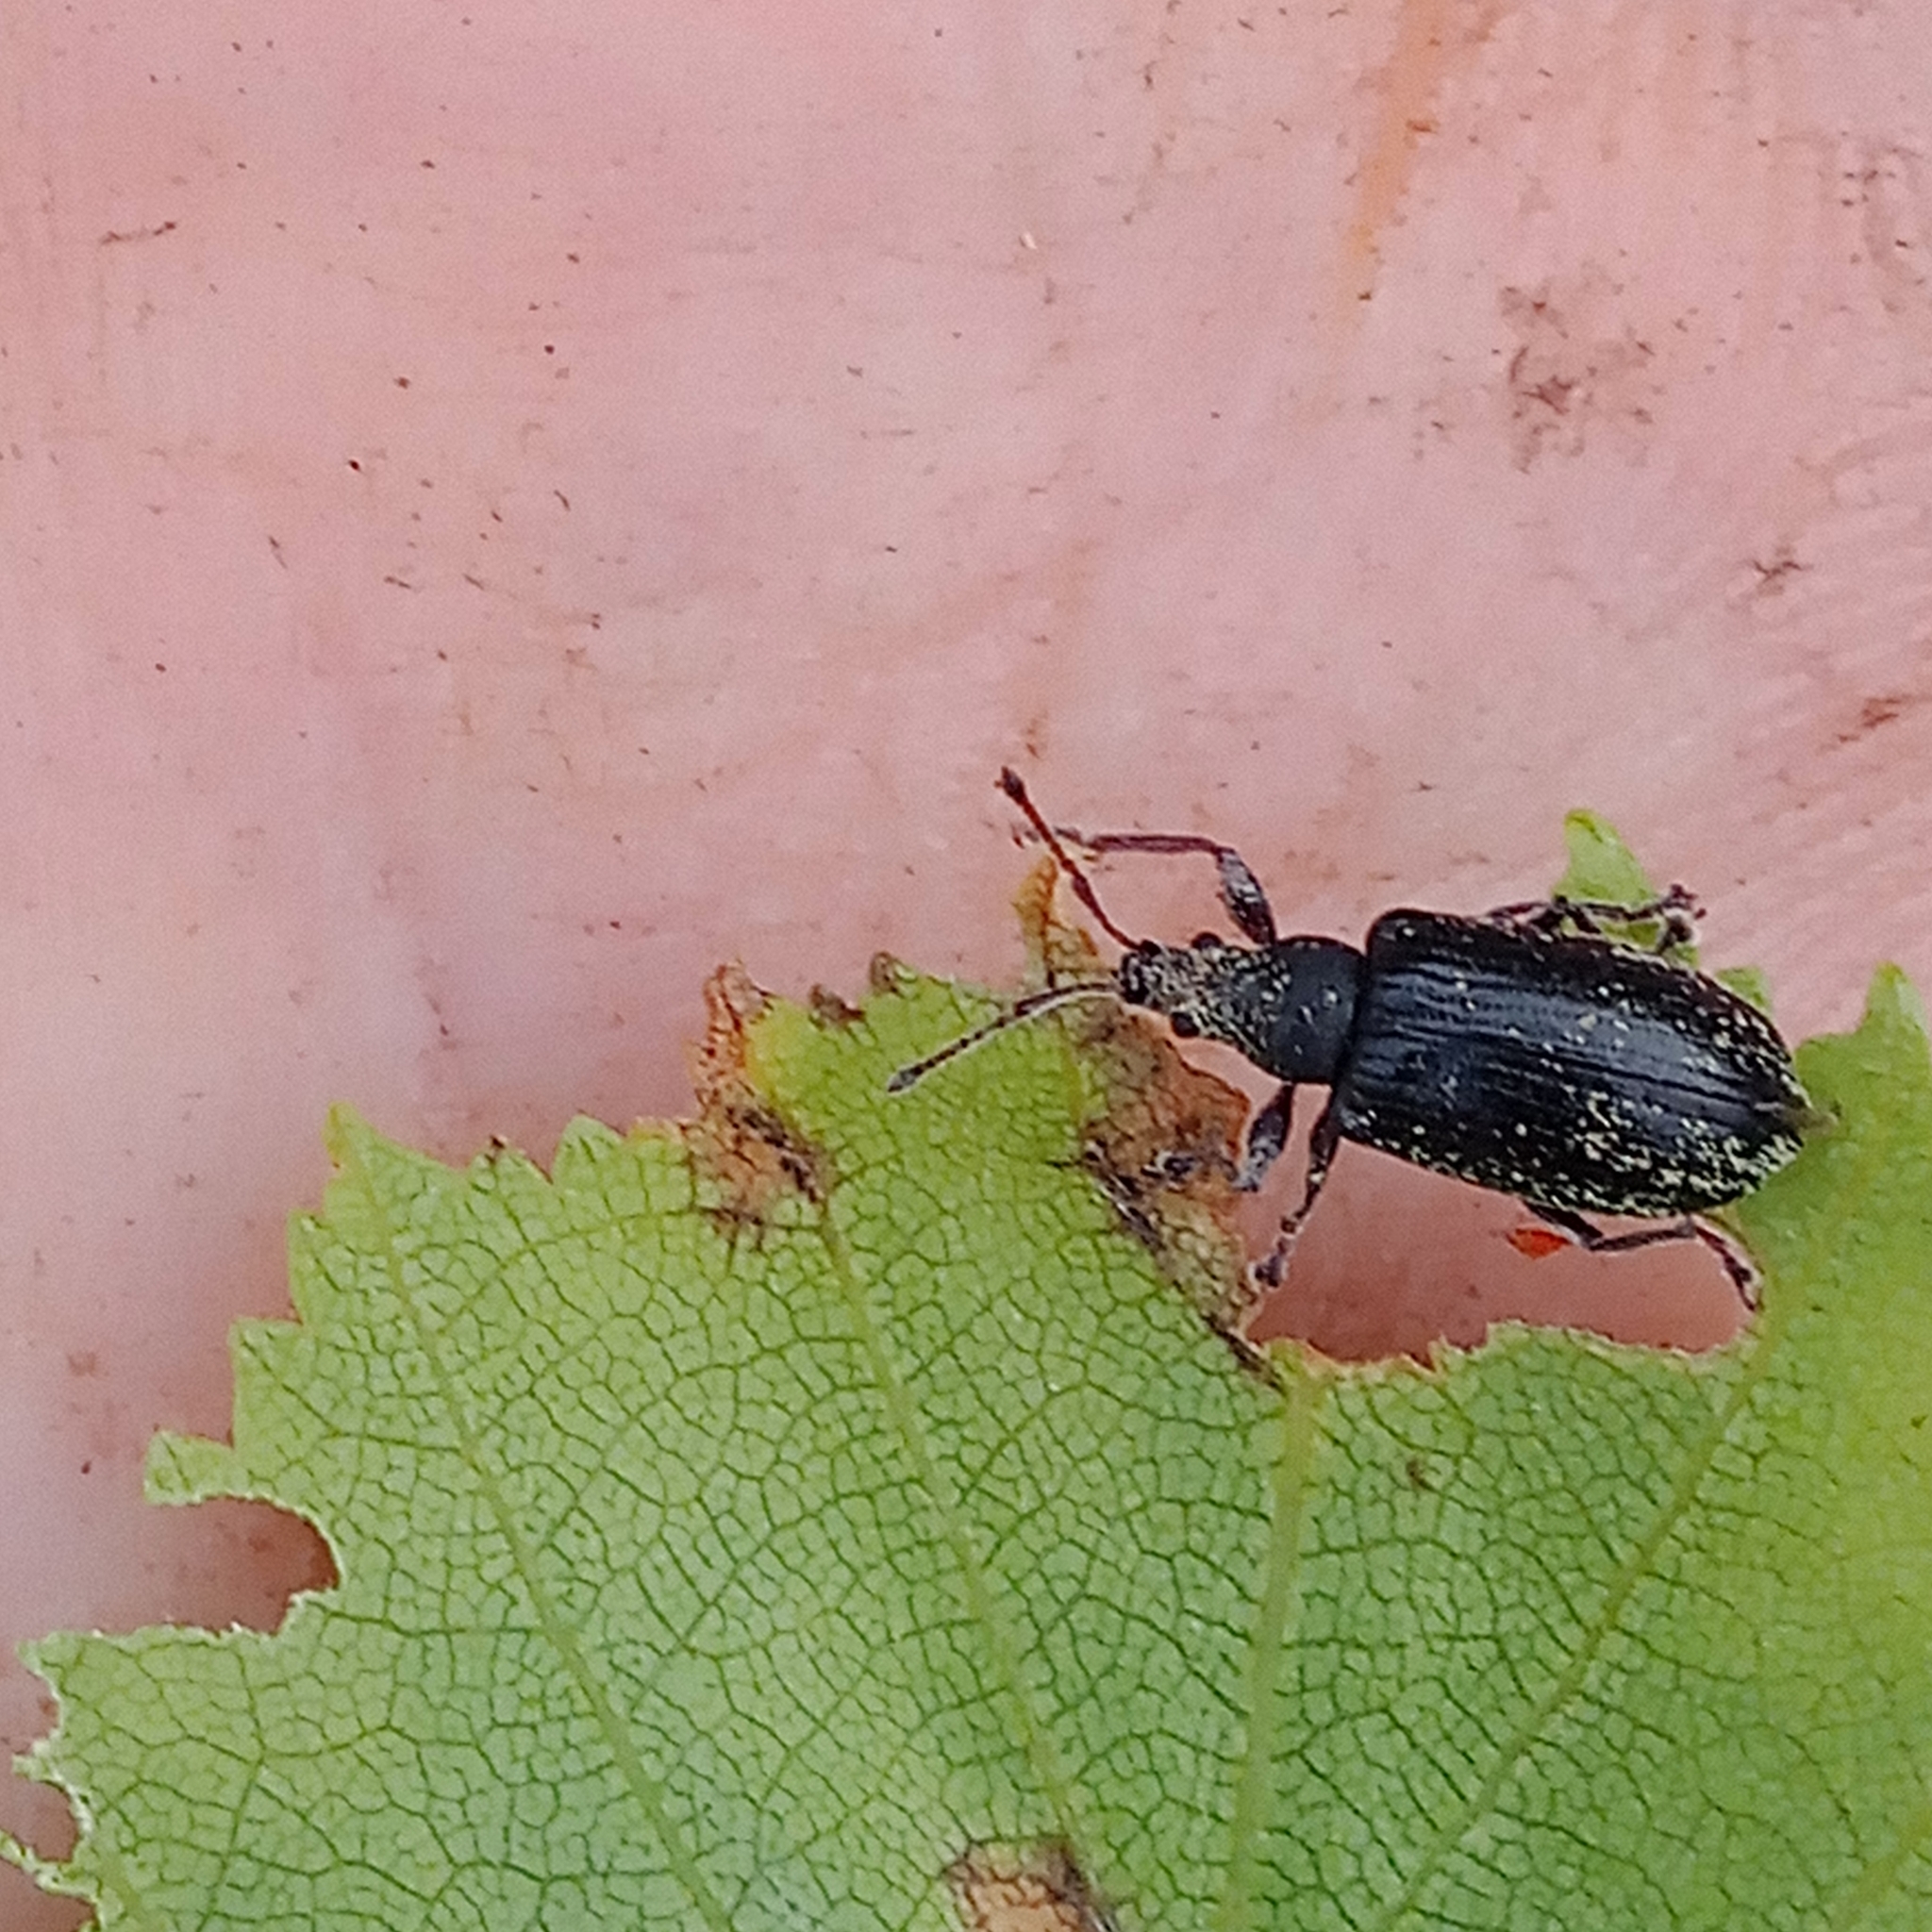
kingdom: Animalia
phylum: Arthropoda
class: Insecta
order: Coleoptera
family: Curculionidae
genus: Phyllobius
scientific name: Phyllobius pyri
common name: Common leaf weevil
